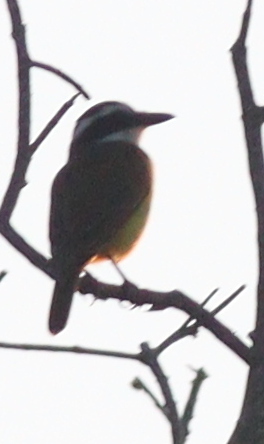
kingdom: Animalia
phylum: Chordata
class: Aves
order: Passeriformes
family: Tyrannidae
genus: Pitangus
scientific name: Pitangus sulphuratus
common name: Great kiskadee
